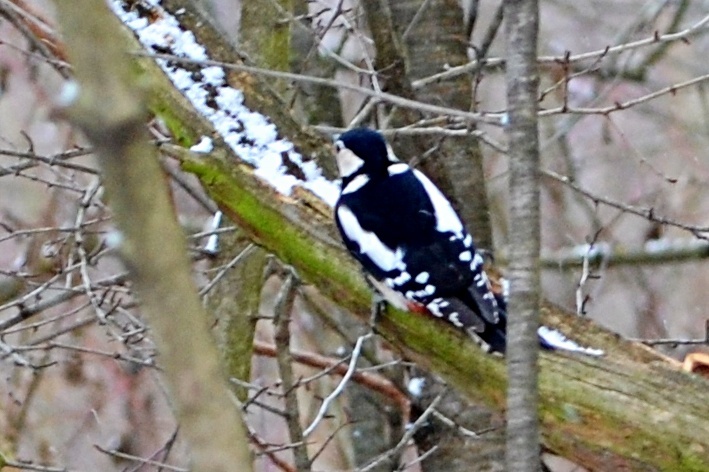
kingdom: Animalia
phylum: Chordata
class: Aves
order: Piciformes
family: Picidae
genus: Dendrocopos
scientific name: Dendrocopos major
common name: Great spotted woodpecker
